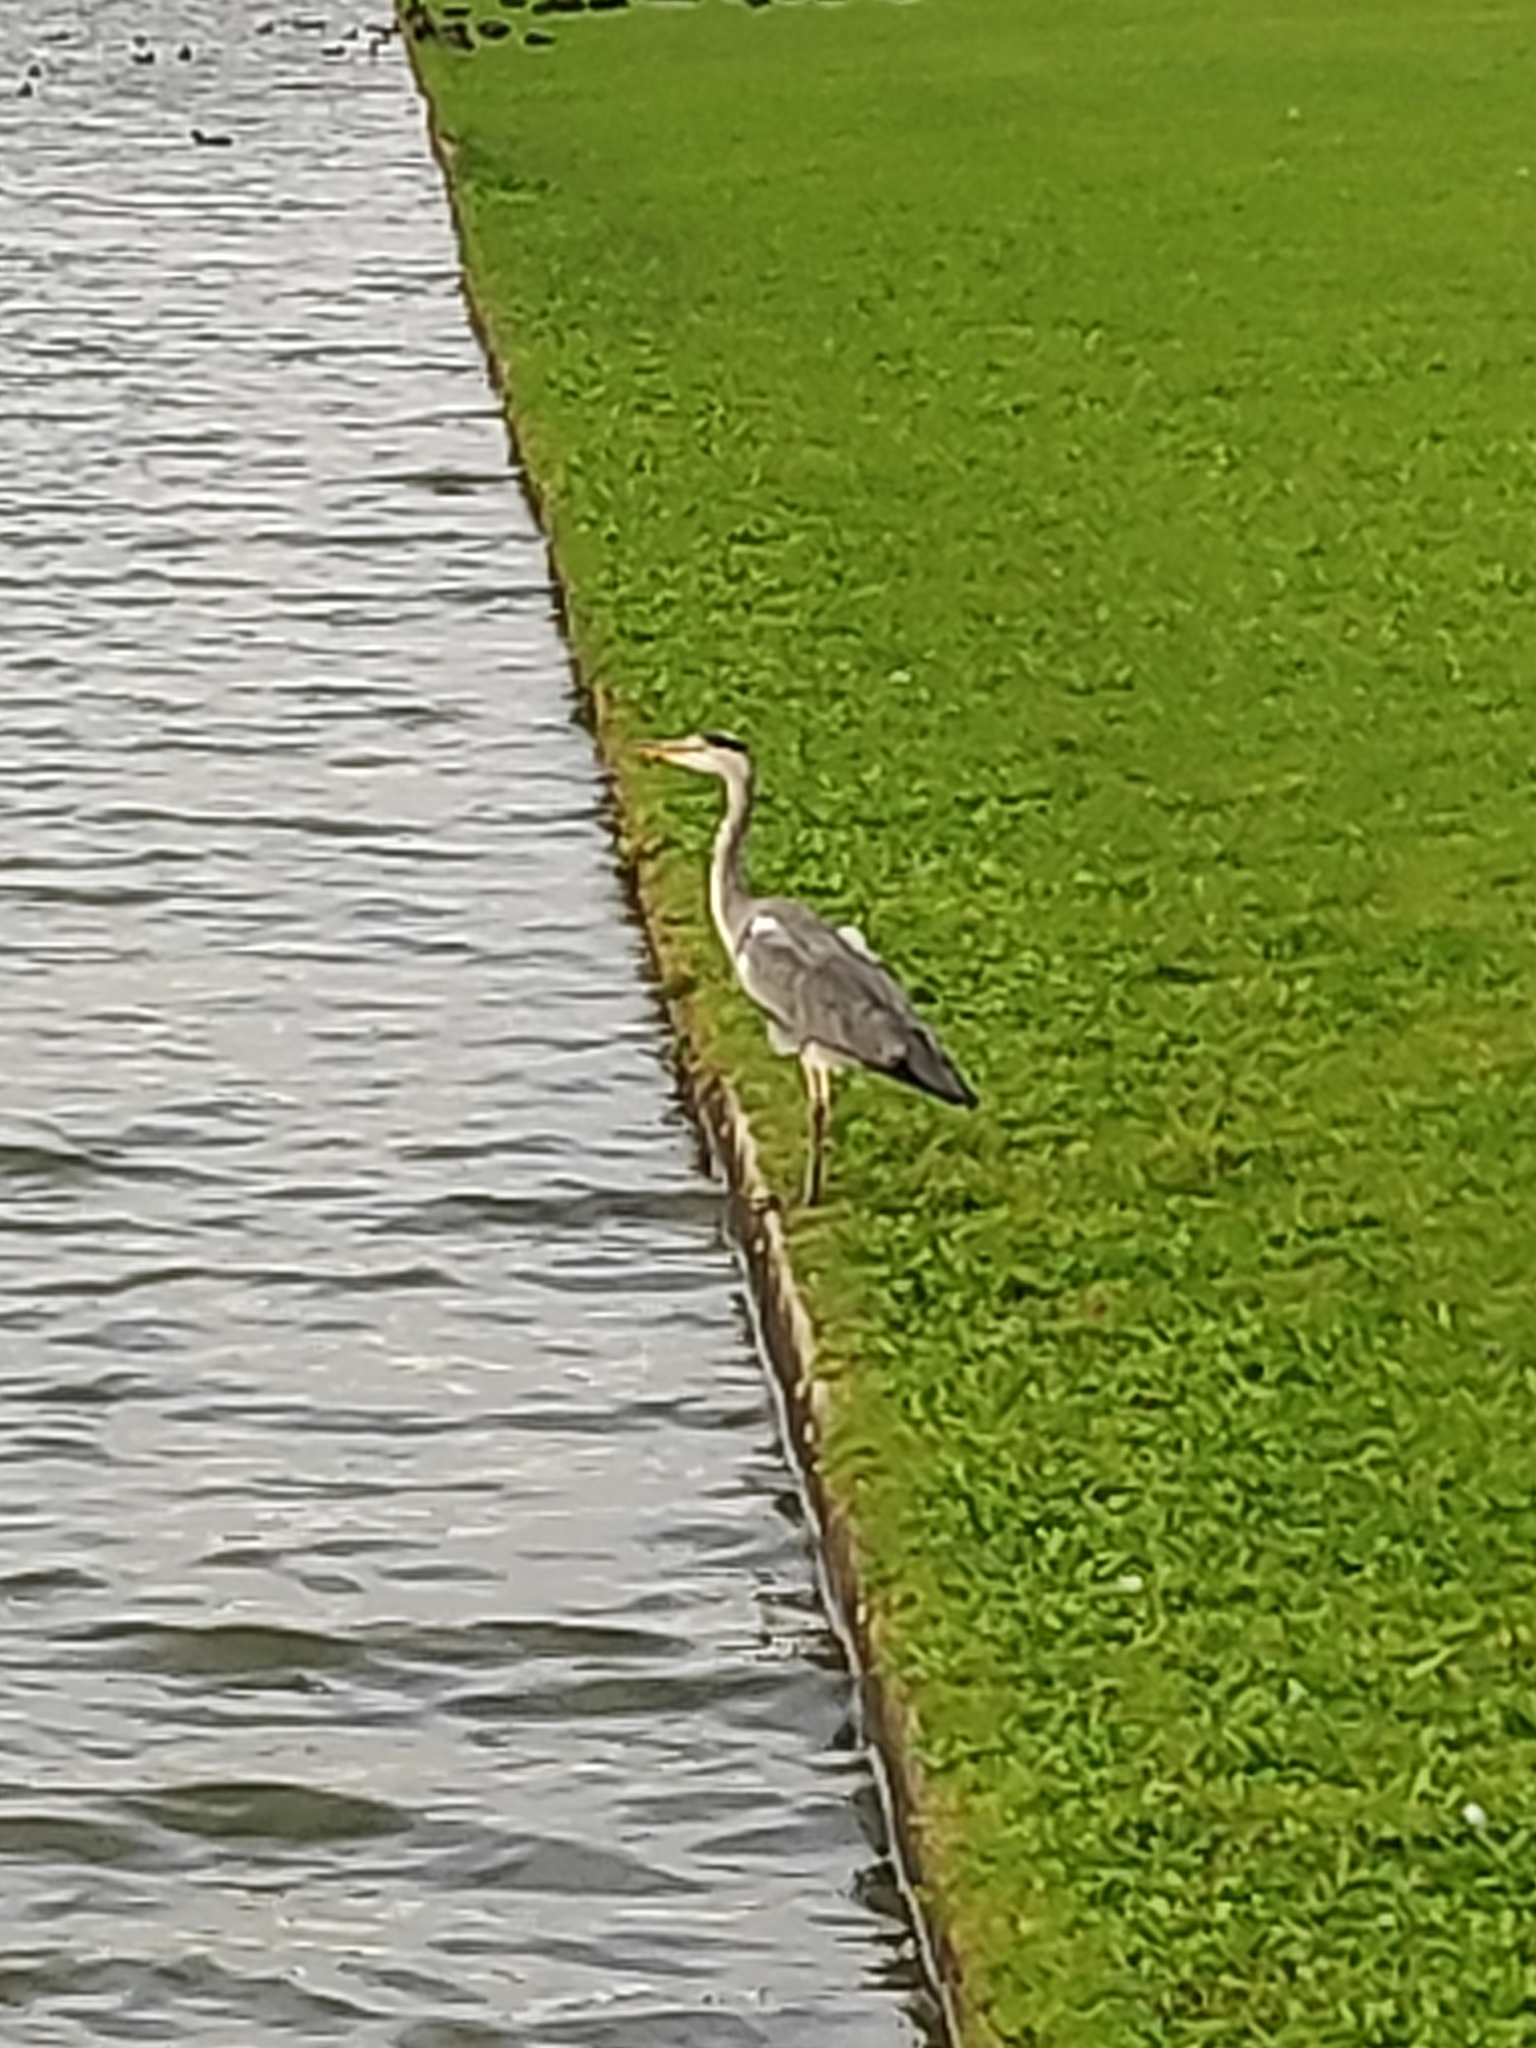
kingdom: Animalia
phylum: Chordata
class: Aves
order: Pelecaniformes
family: Ardeidae
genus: Ardea
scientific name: Ardea cinerea
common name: Grey heron
